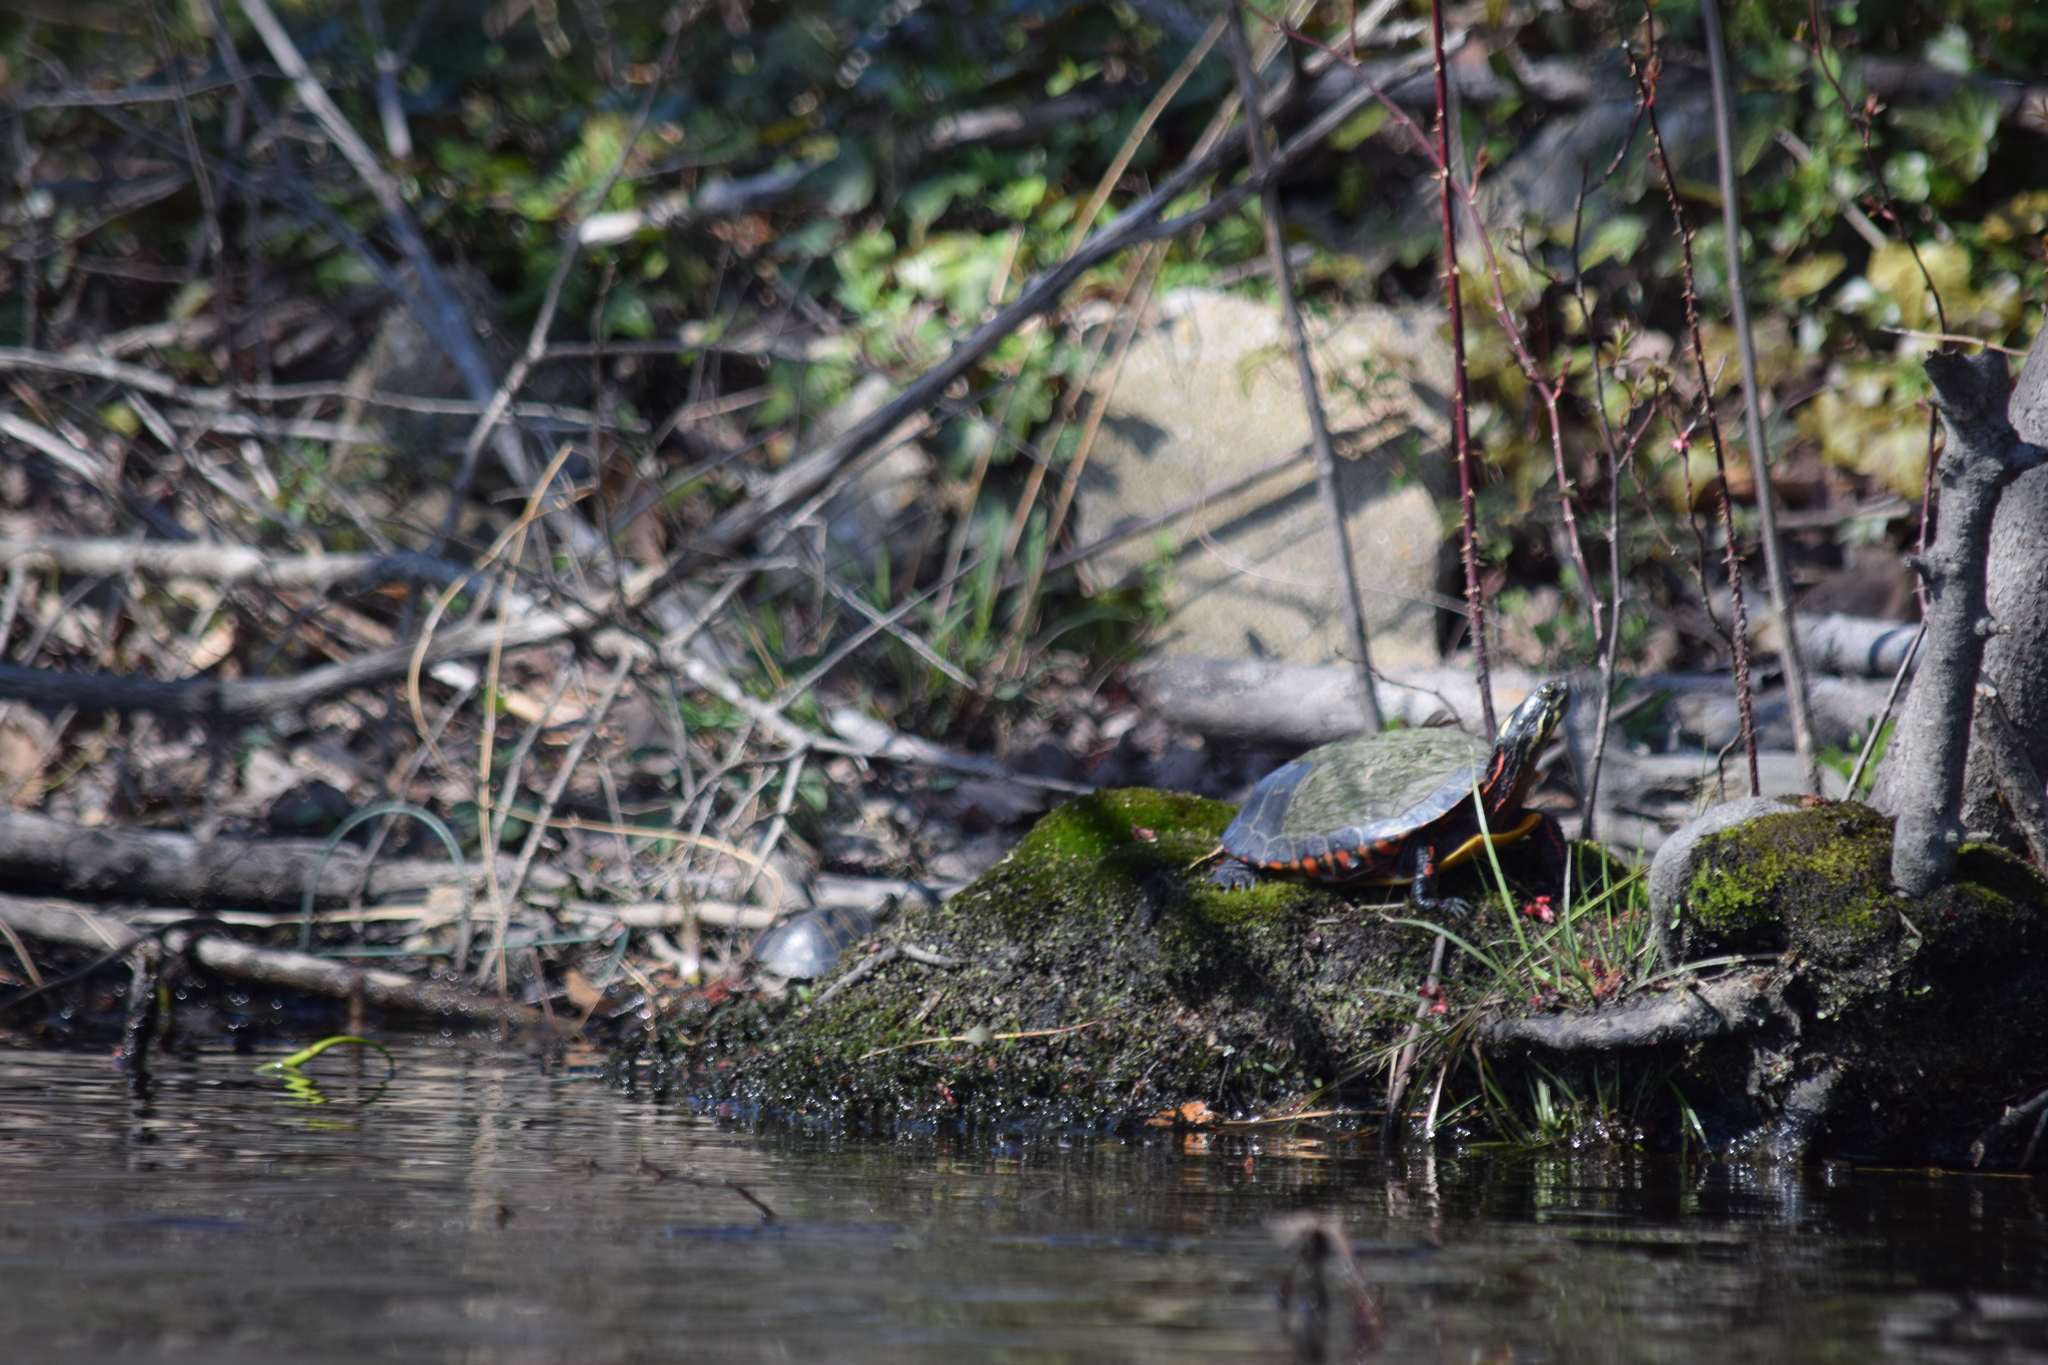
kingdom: Animalia
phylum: Chordata
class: Testudines
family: Emydidae
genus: Chrysemys
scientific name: Chrysemys picta
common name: Painted turtle
